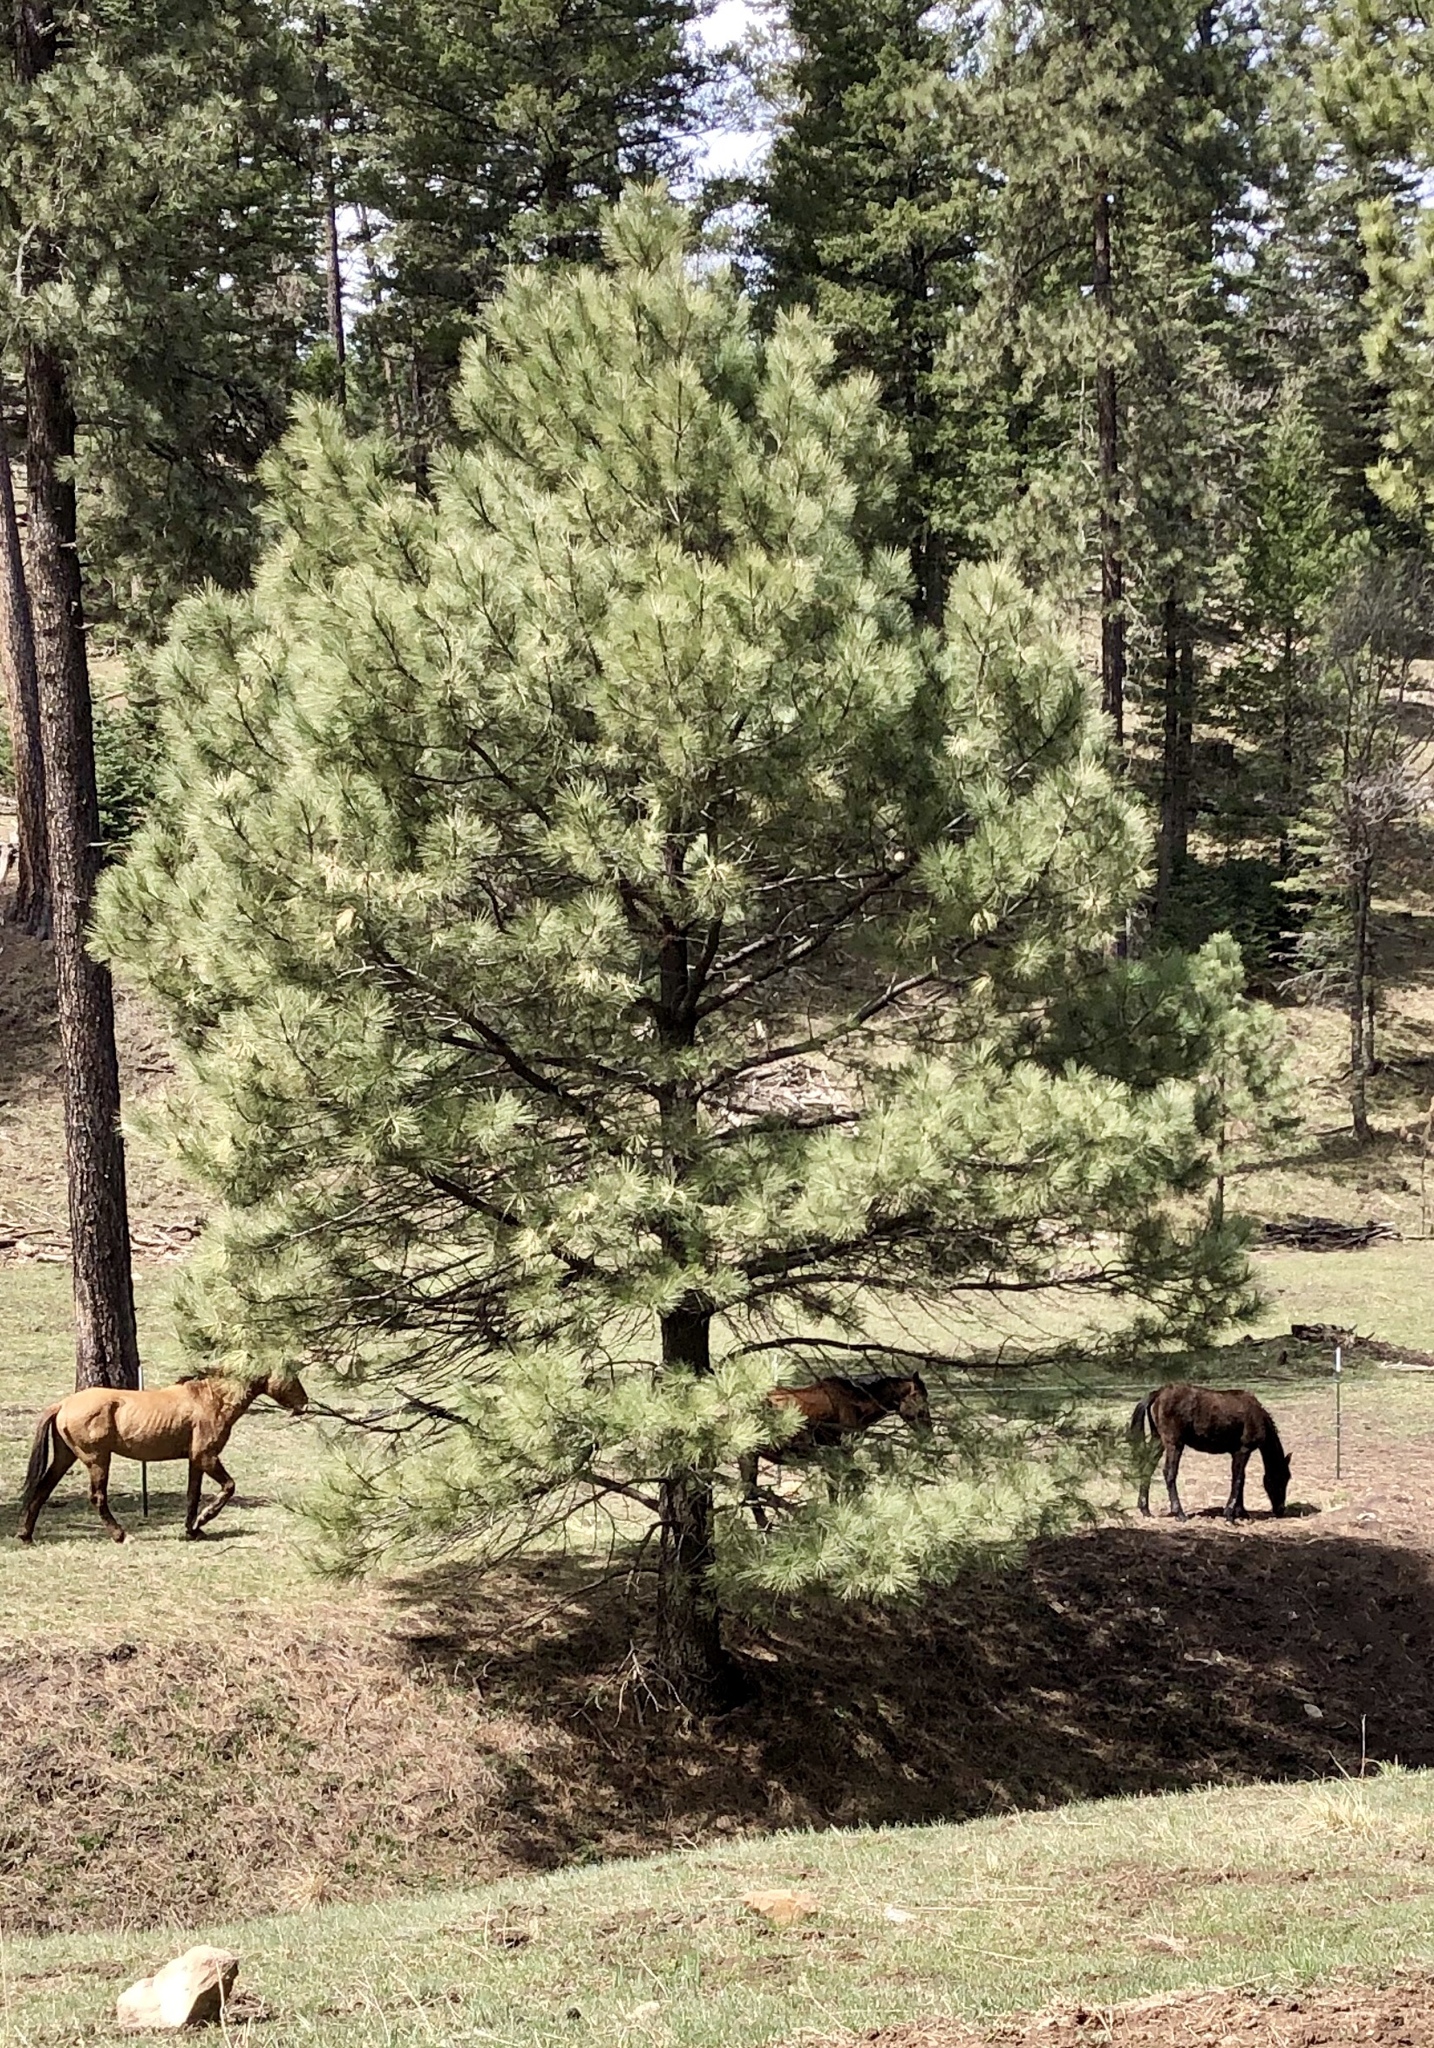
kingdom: Plantae
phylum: Tracheophyta
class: Pinopsida
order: Pinales
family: Pinaceae
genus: Pinus
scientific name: Pinus ponderosa
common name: Western yellow-pine
